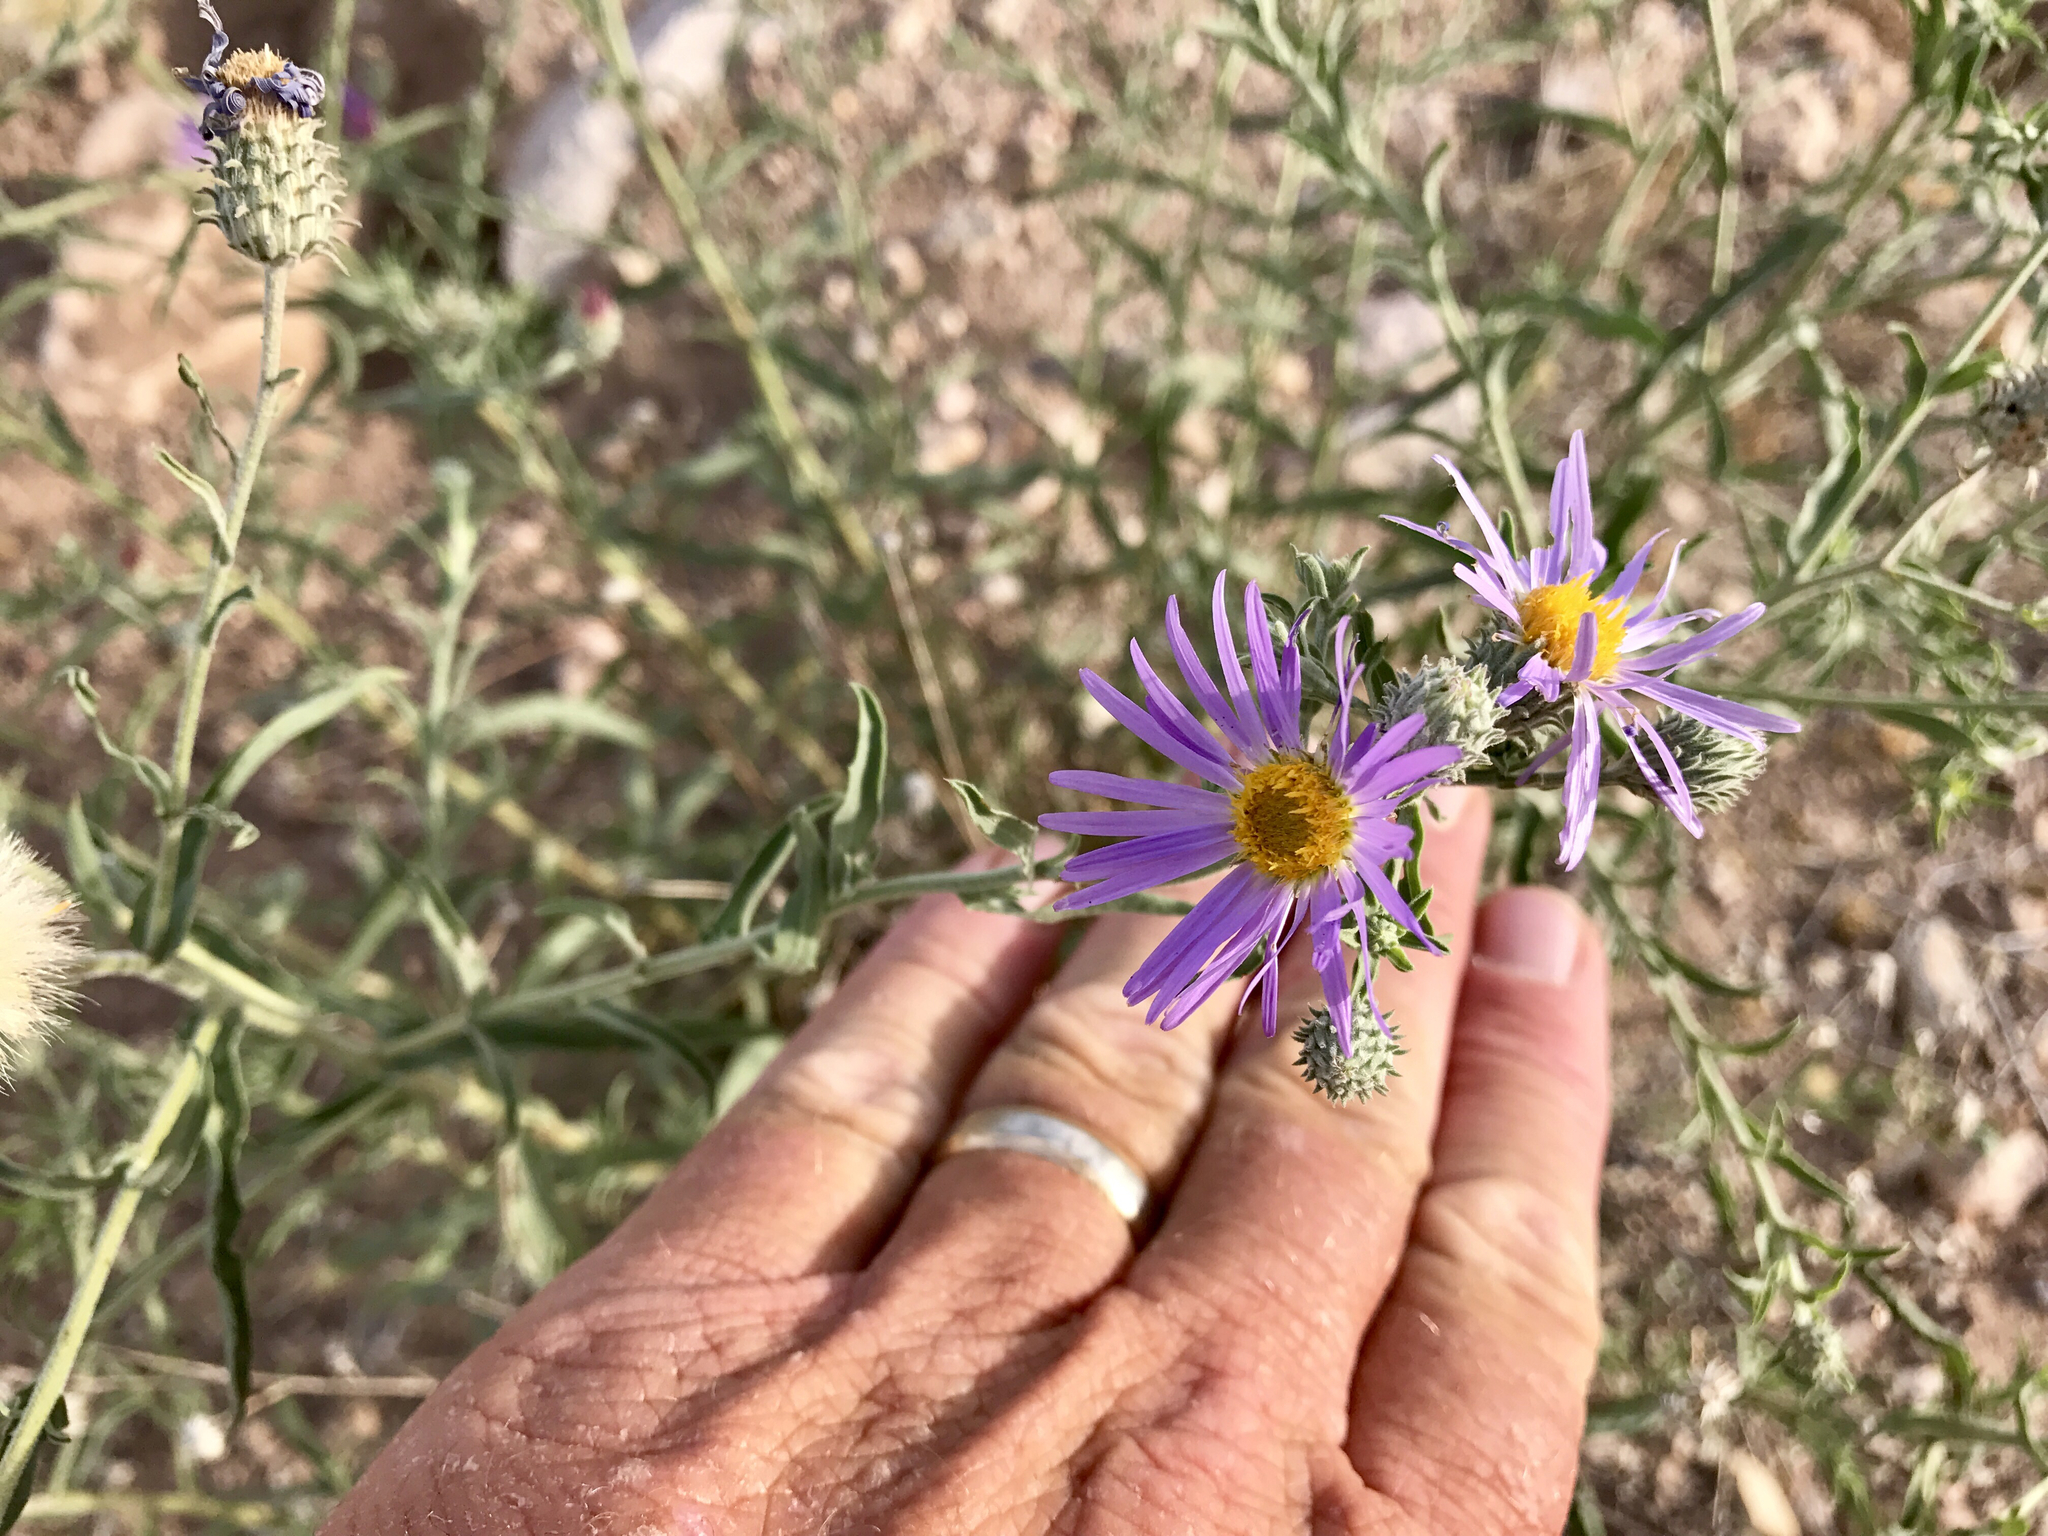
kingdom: Plantae
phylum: Tracheophyta
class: Magnoliopsida
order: Asterales
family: Asteraceae
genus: Machaeranthera
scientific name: Machaeranthera tanacetifolia
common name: Tansy-aster
